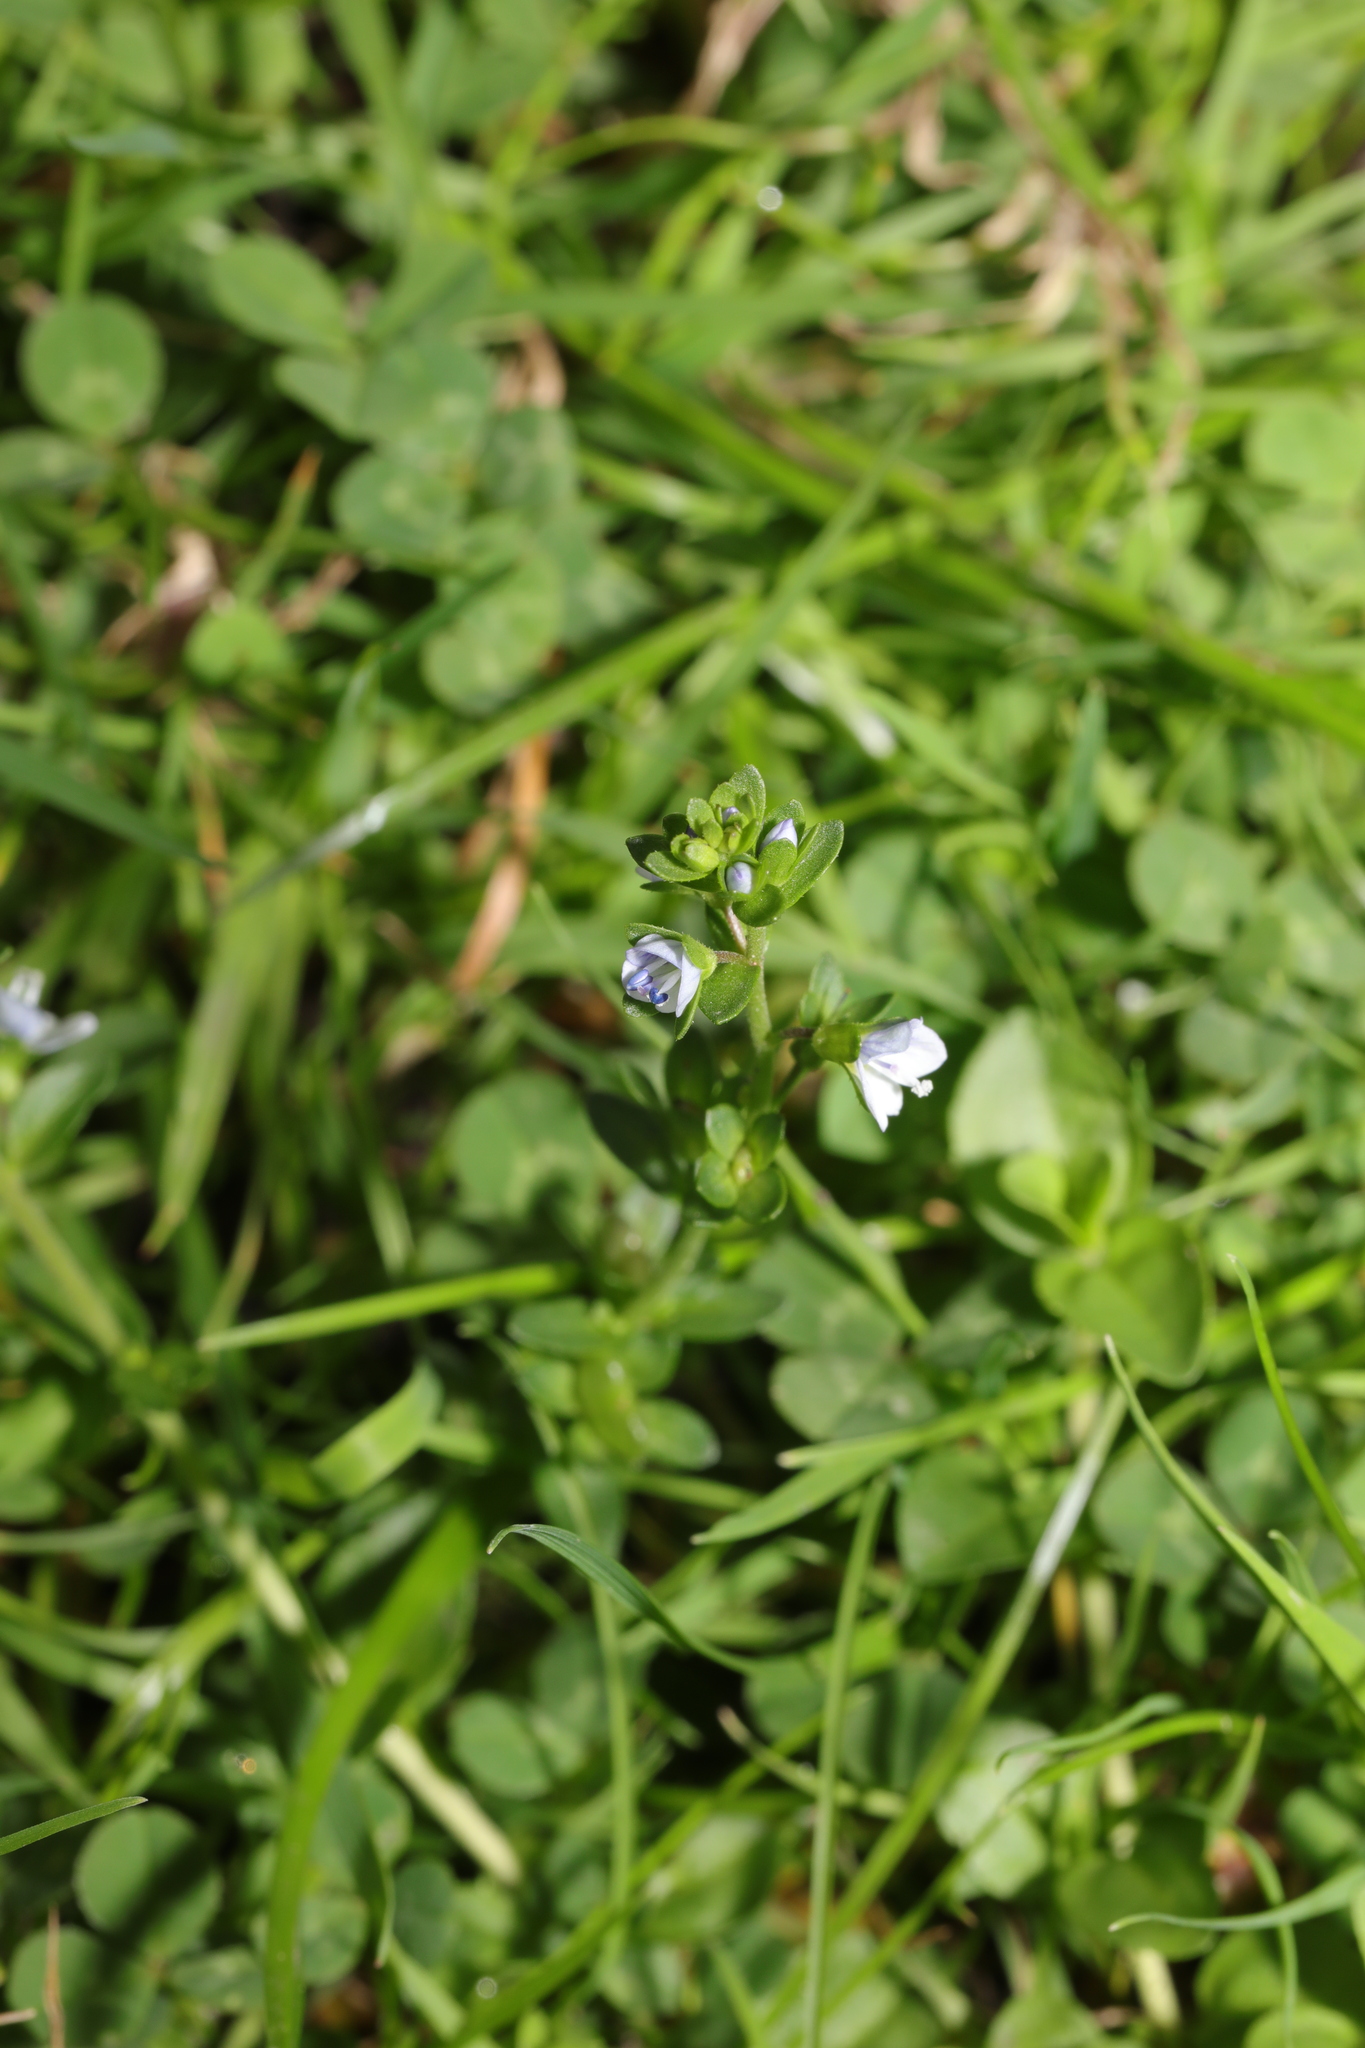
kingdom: Plantae
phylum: Tracheophyta
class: Magnoliopsida
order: Lamiales
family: Plantaginaceae
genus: Veronica
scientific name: Veronica serpyllifolia
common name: Thyme-leaved speedwell
